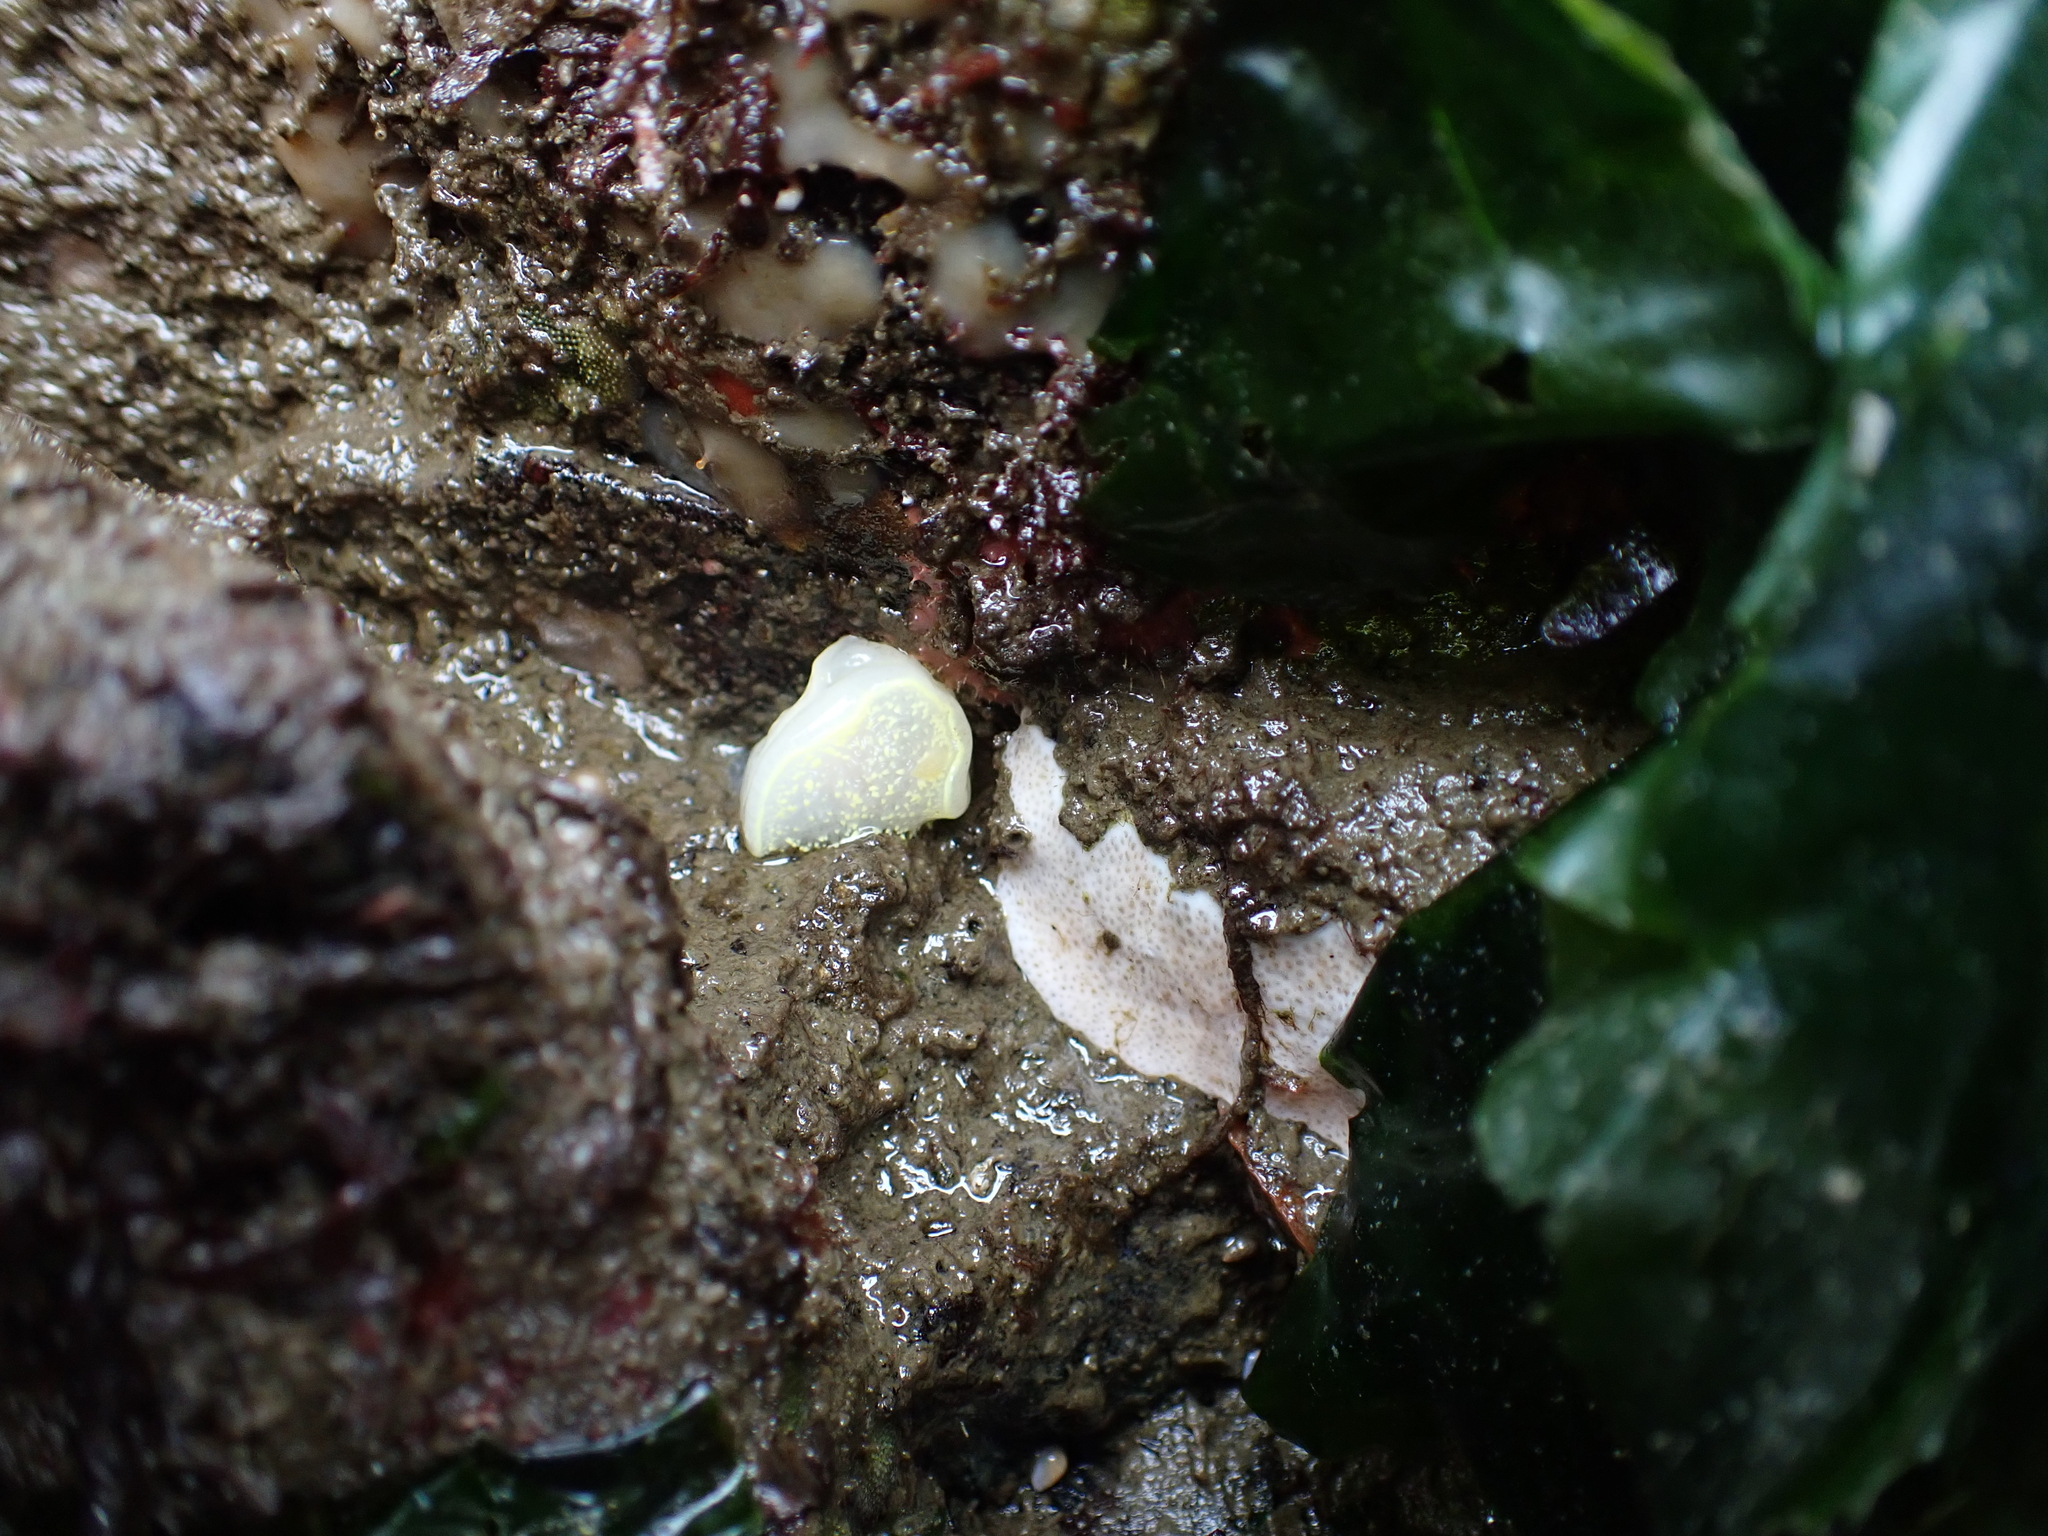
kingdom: Animalia
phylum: Mollusca
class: Gastropoda
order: Nudibranchia
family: Onchidorididae
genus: Acanthodoris
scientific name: Acanthodoris hudsoni
